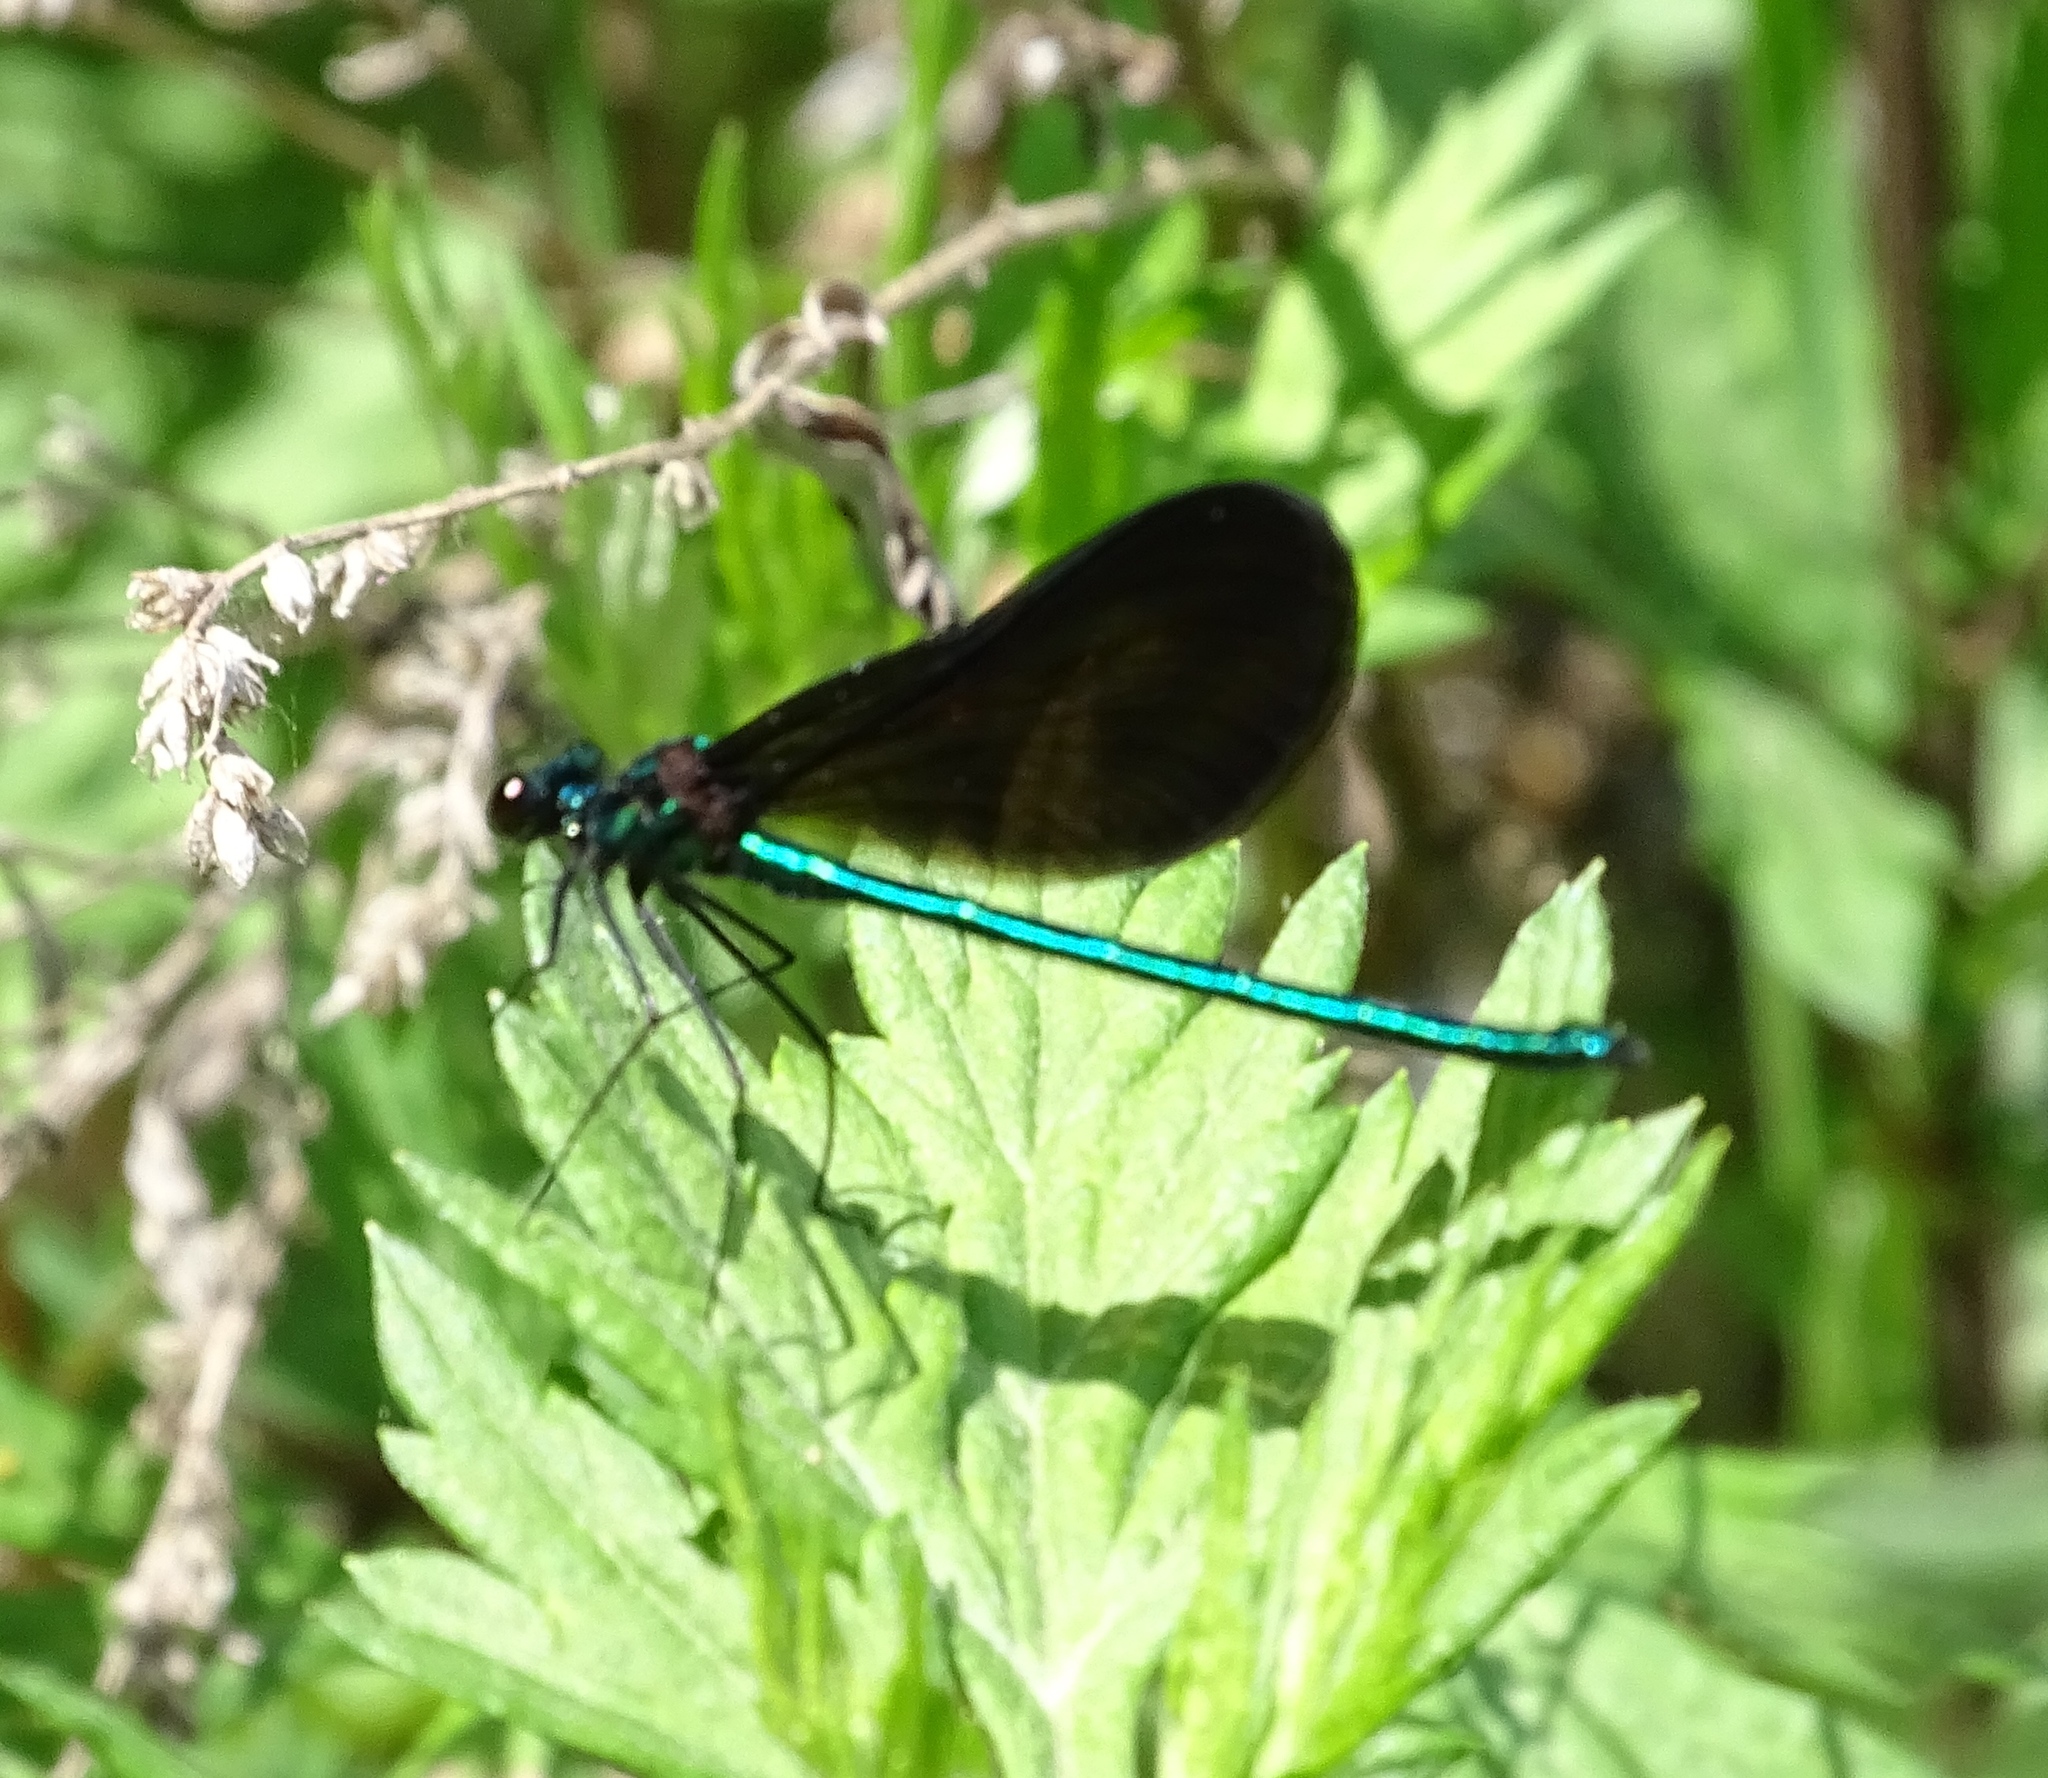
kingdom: Animalia
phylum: Arthropoda
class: Insecta
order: Odonata
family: Calopterygidae
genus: Calopteryx
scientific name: Calopteryx maculata
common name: Ebony jewelwing
